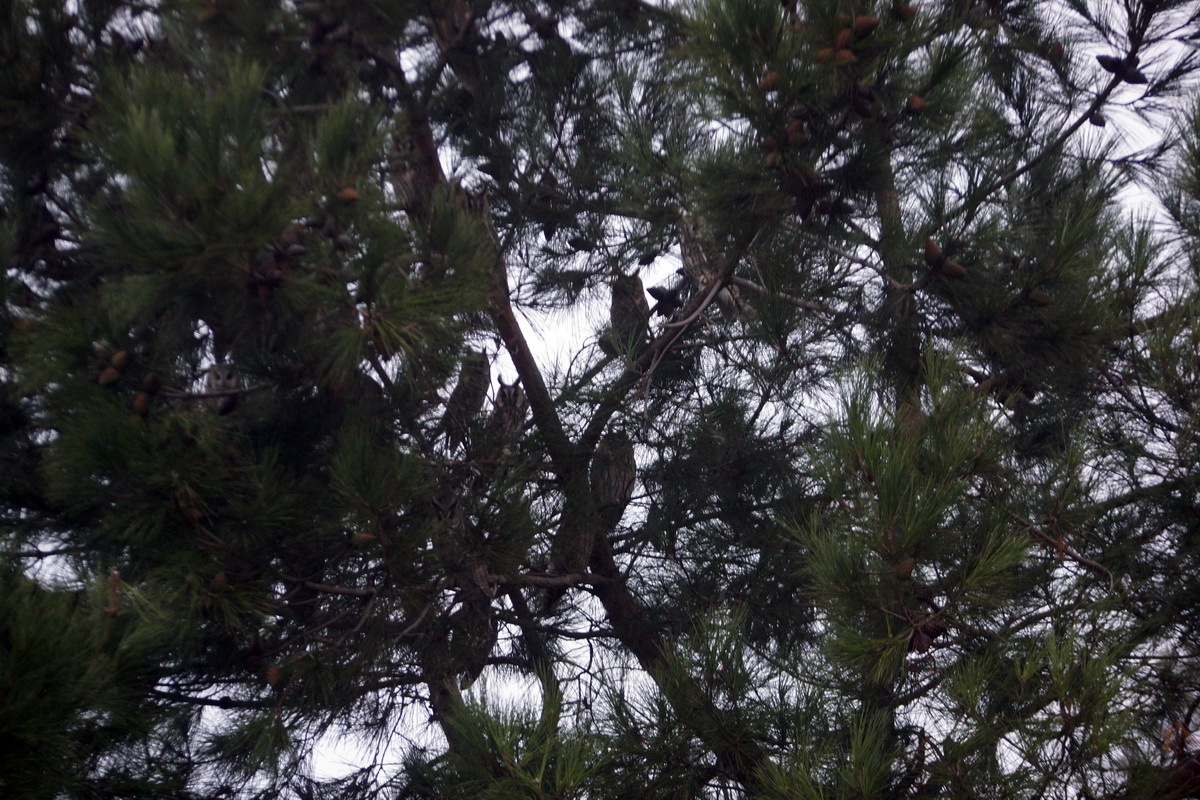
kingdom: Animalia
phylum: Chordata
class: Aves
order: Strigiformes
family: Strigidae
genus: Asio
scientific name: Asio otus
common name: Long-eared owl
